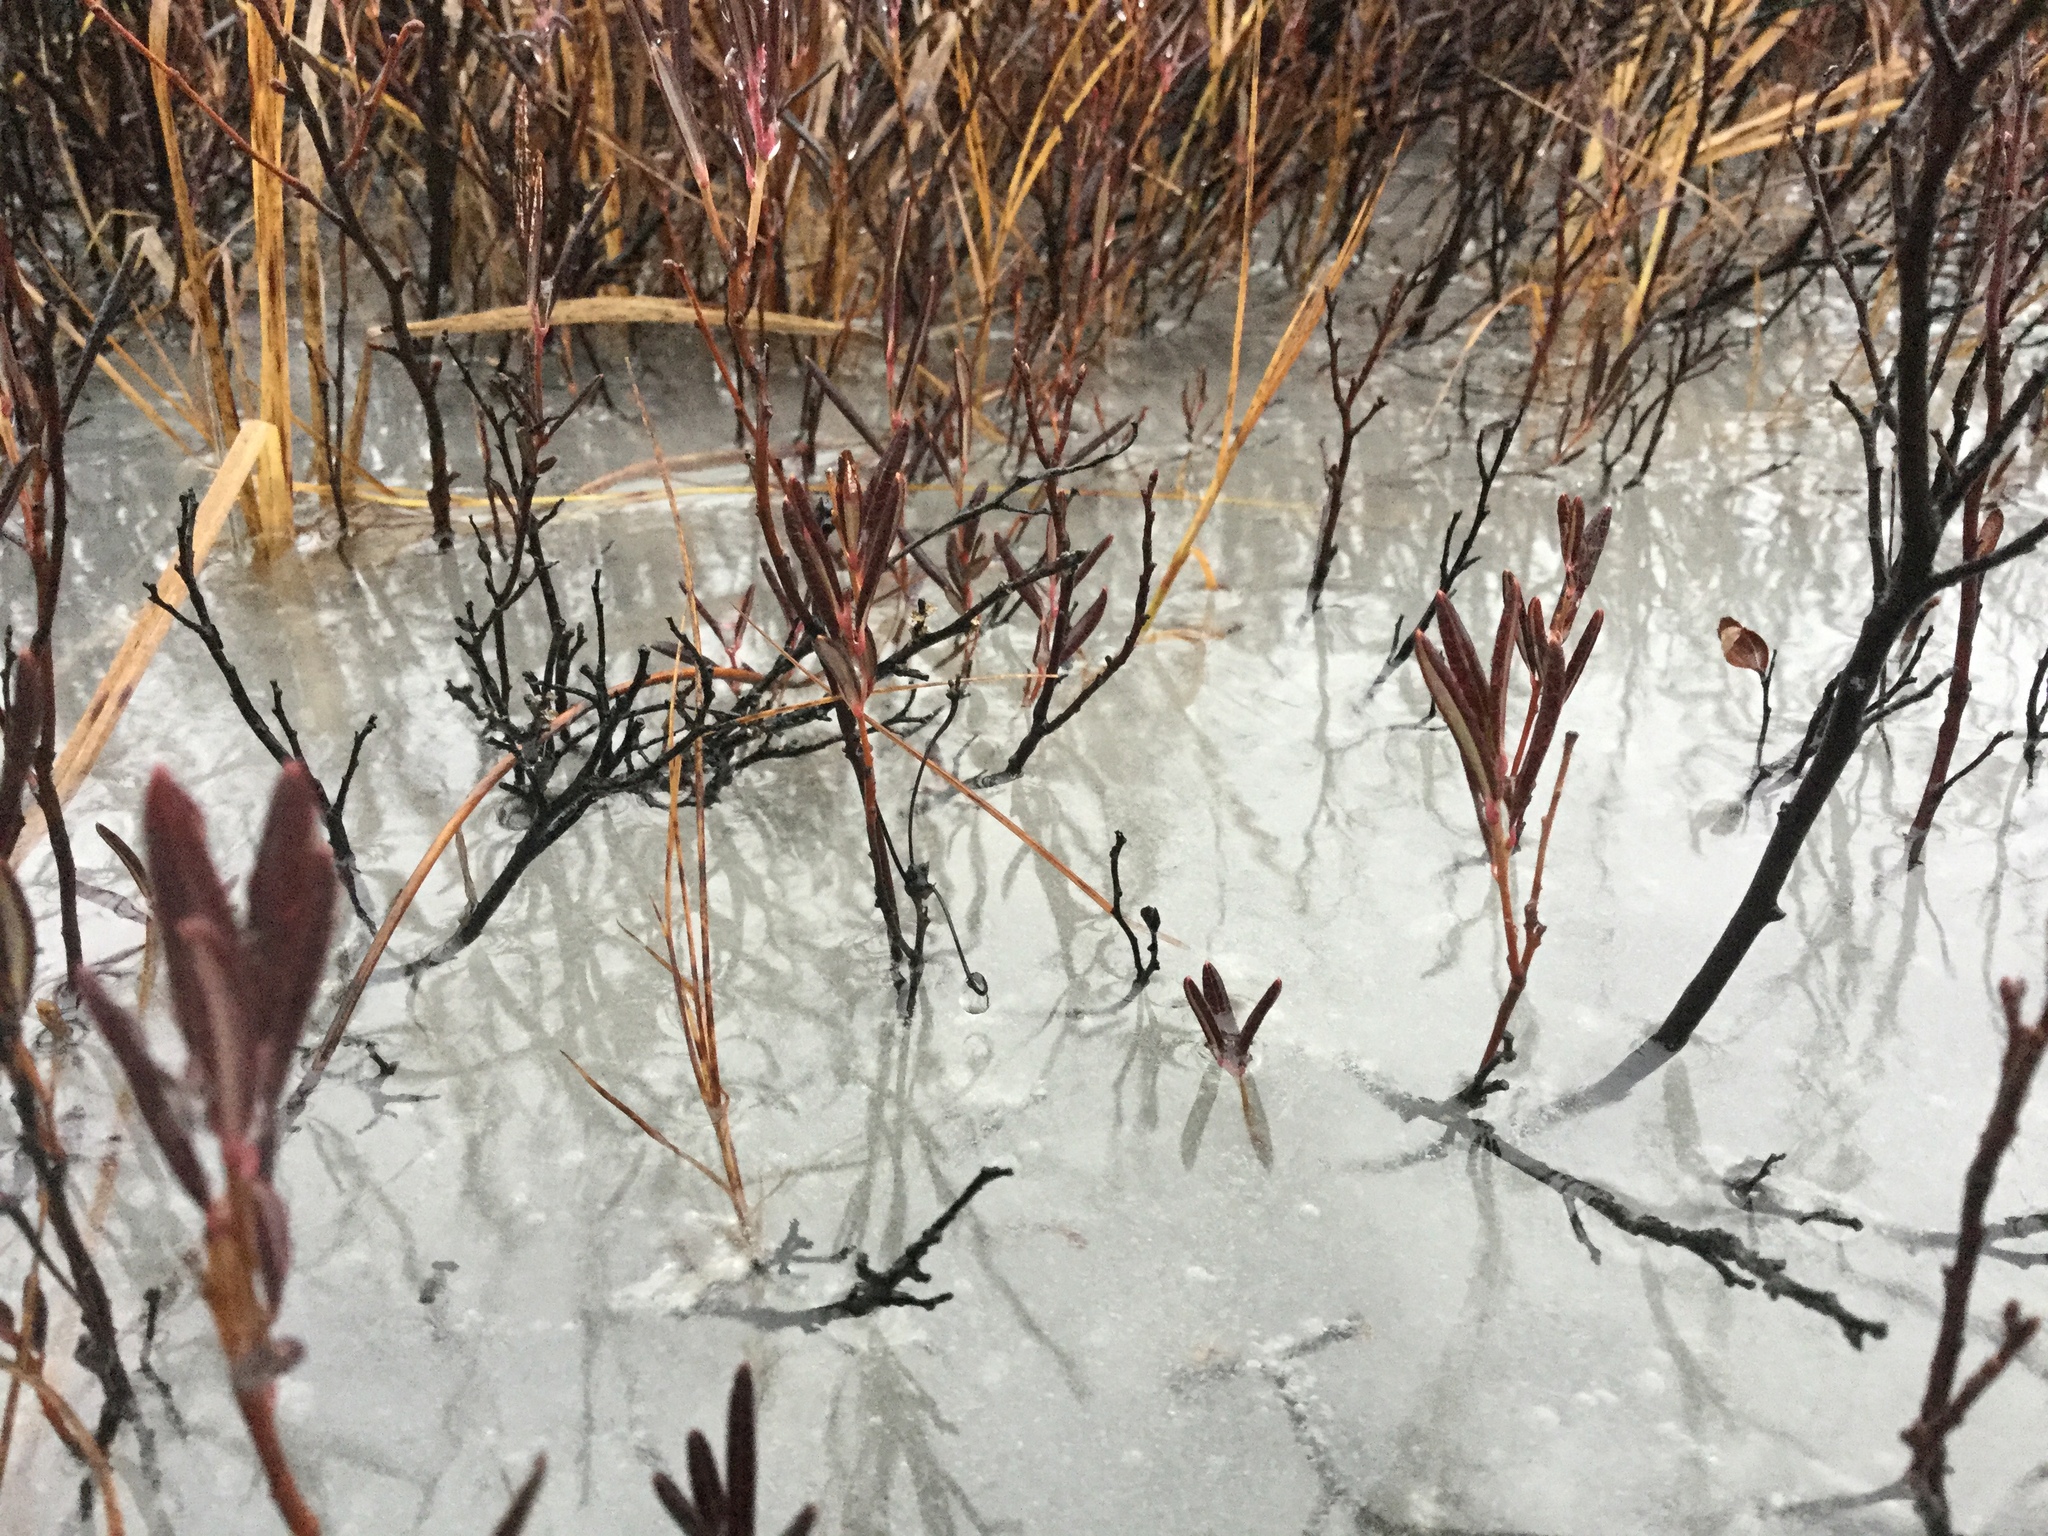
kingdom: Plantae
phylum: Tracheophyta
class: Magnoliopsida
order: Ericales
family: Ericaceae
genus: Andromeda
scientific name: Andromeda polifolia
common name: Bog-rosemary
